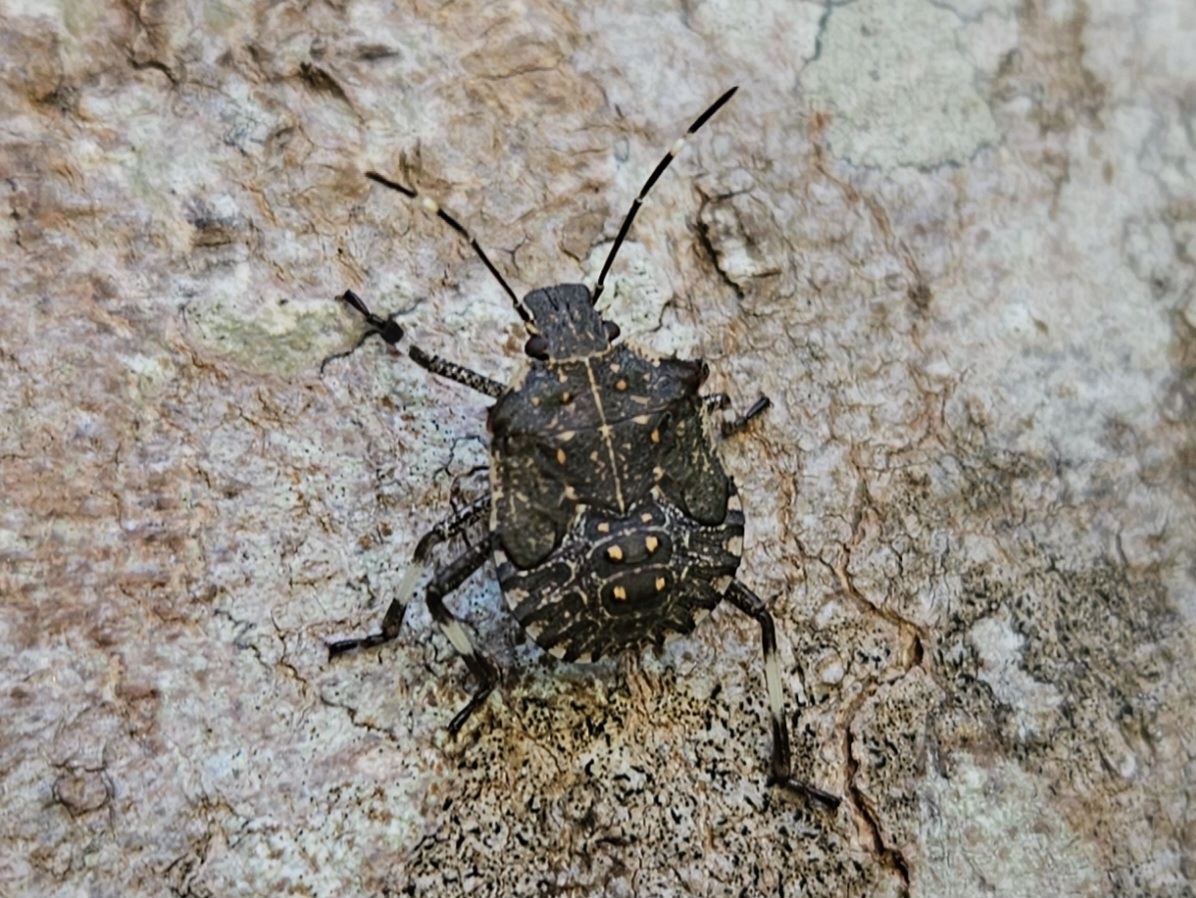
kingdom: Animalia
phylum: Arthropoda
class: Insecta
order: Hemiptera
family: Pentatomidae
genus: Halyomorpha
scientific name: Halyomorpha halys
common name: Brown marmorated stink bug
